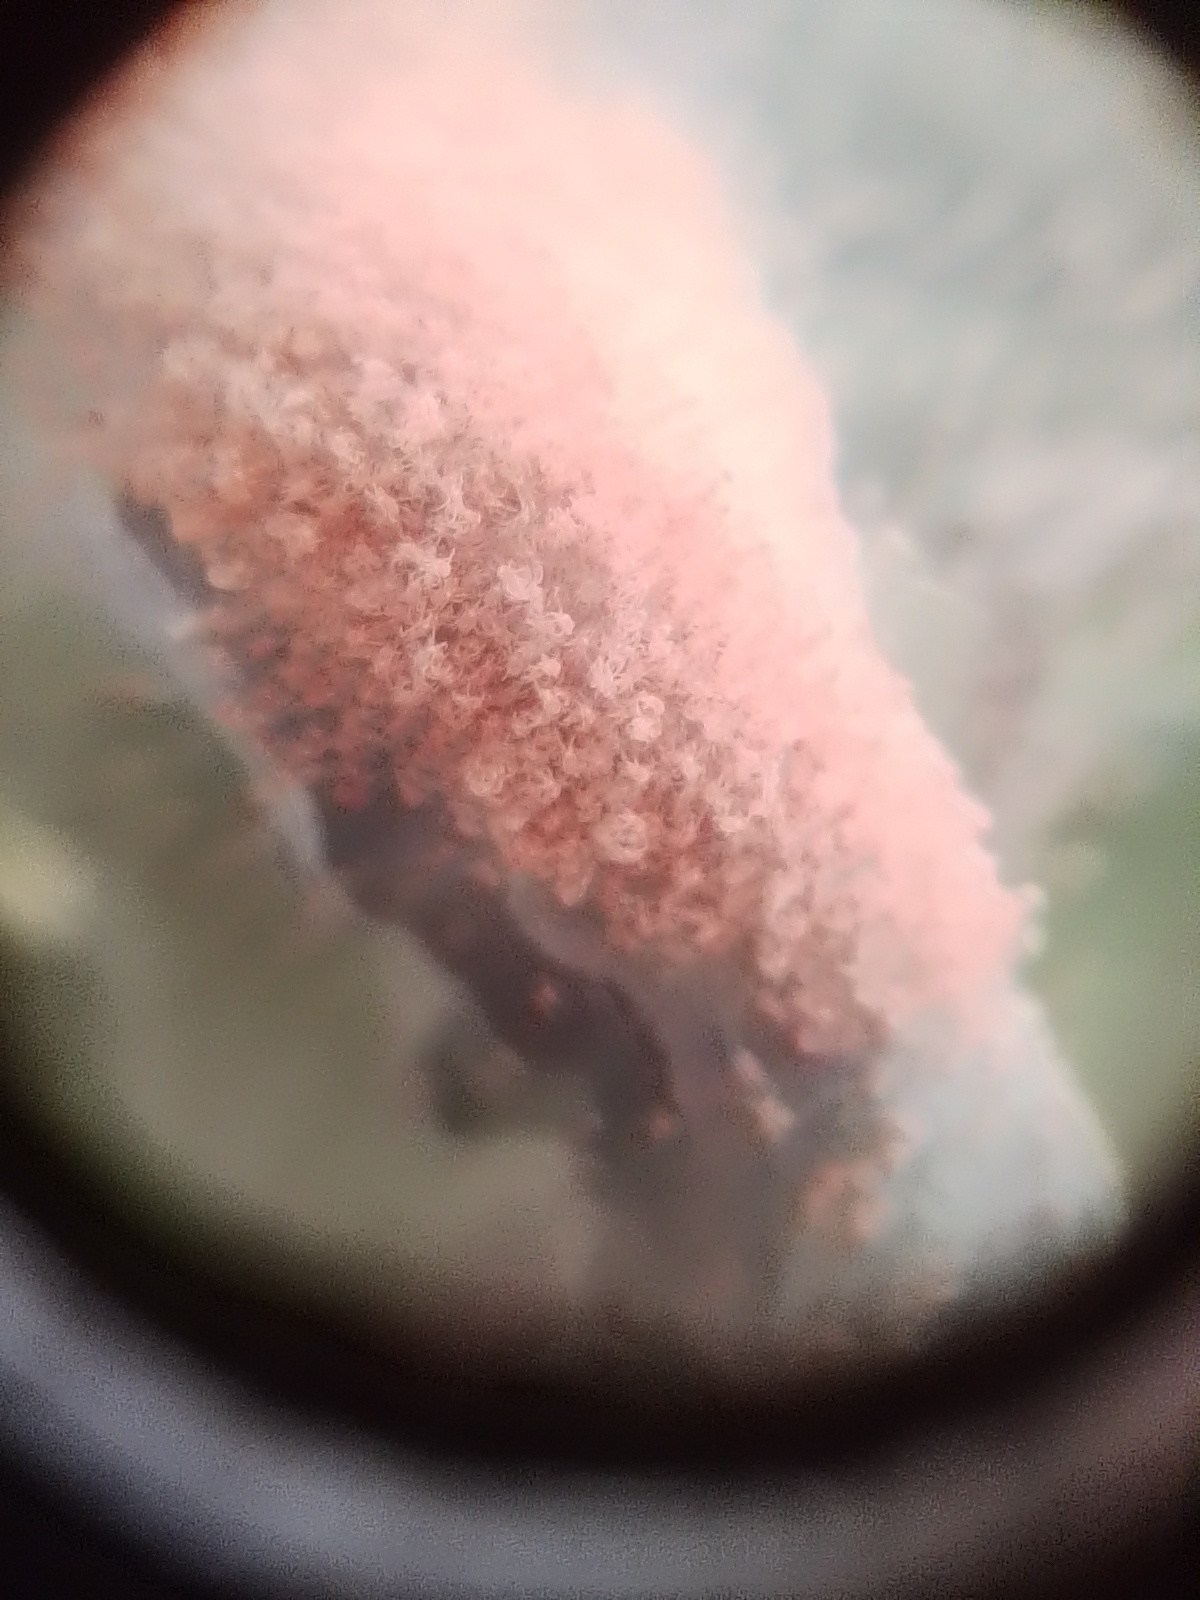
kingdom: Animalia
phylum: Arthropoda
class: Arachnida
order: Trombidiformes
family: Tetranychidae
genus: Tetranychus
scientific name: Tetranychus urticae
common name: Carmine spider mite
